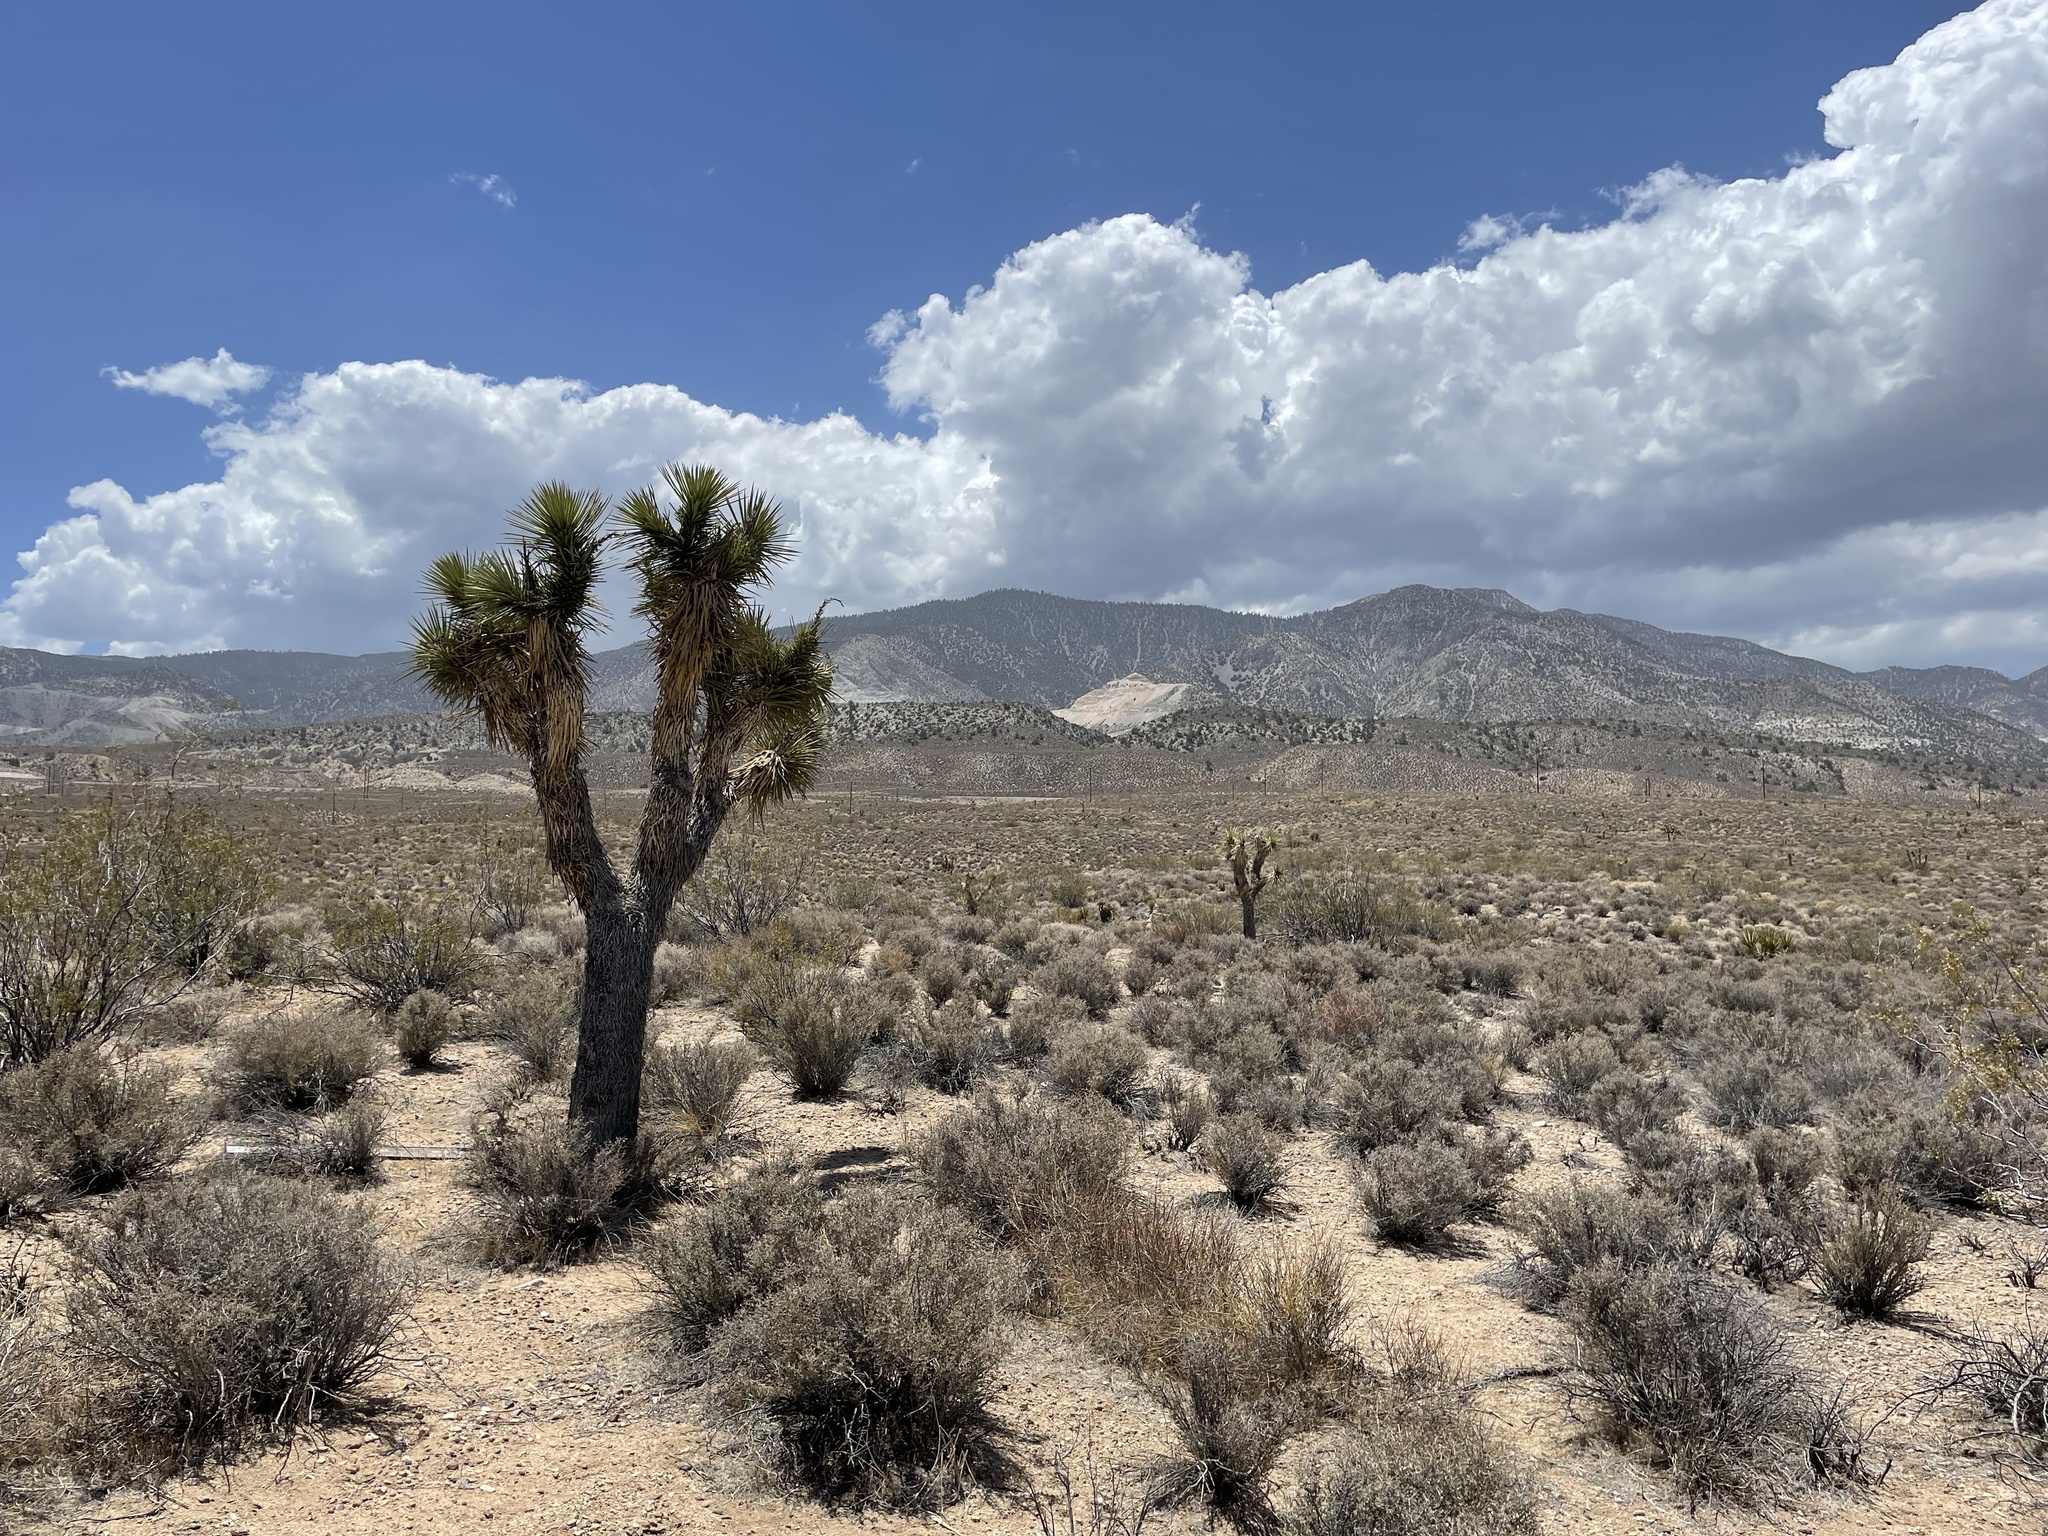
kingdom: Plantae
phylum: Tracheophyta
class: Liliopsida
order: Asparagales
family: Asparagaceae
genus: Yucca
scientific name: Yucca brevifolia
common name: Joshua tree
